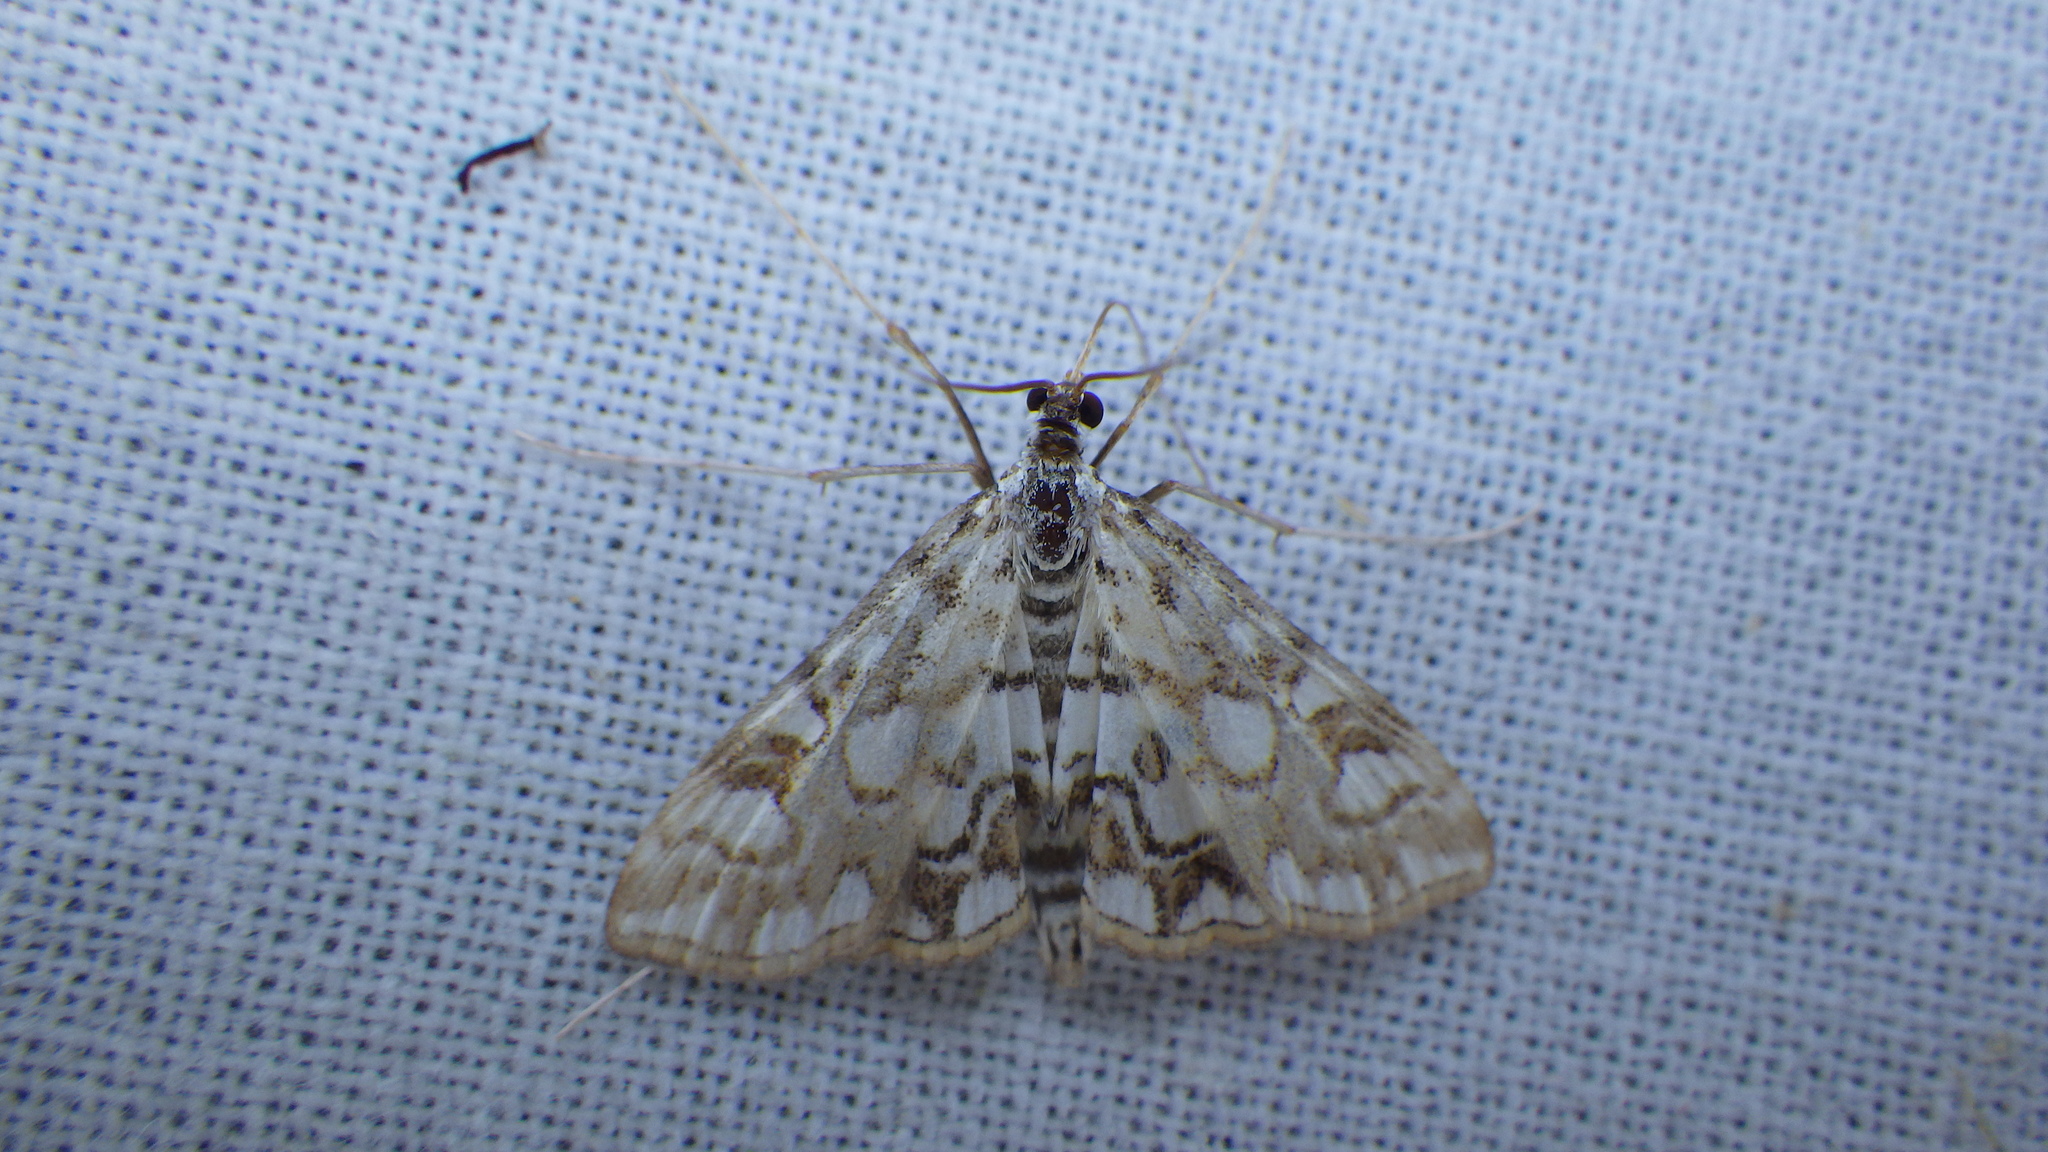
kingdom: Animalia
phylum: Arthropoda
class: Insecta
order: Lepidoptera
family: Crambidae
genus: Elophila
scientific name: Elophila nymphaeata
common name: Brown china-mark
